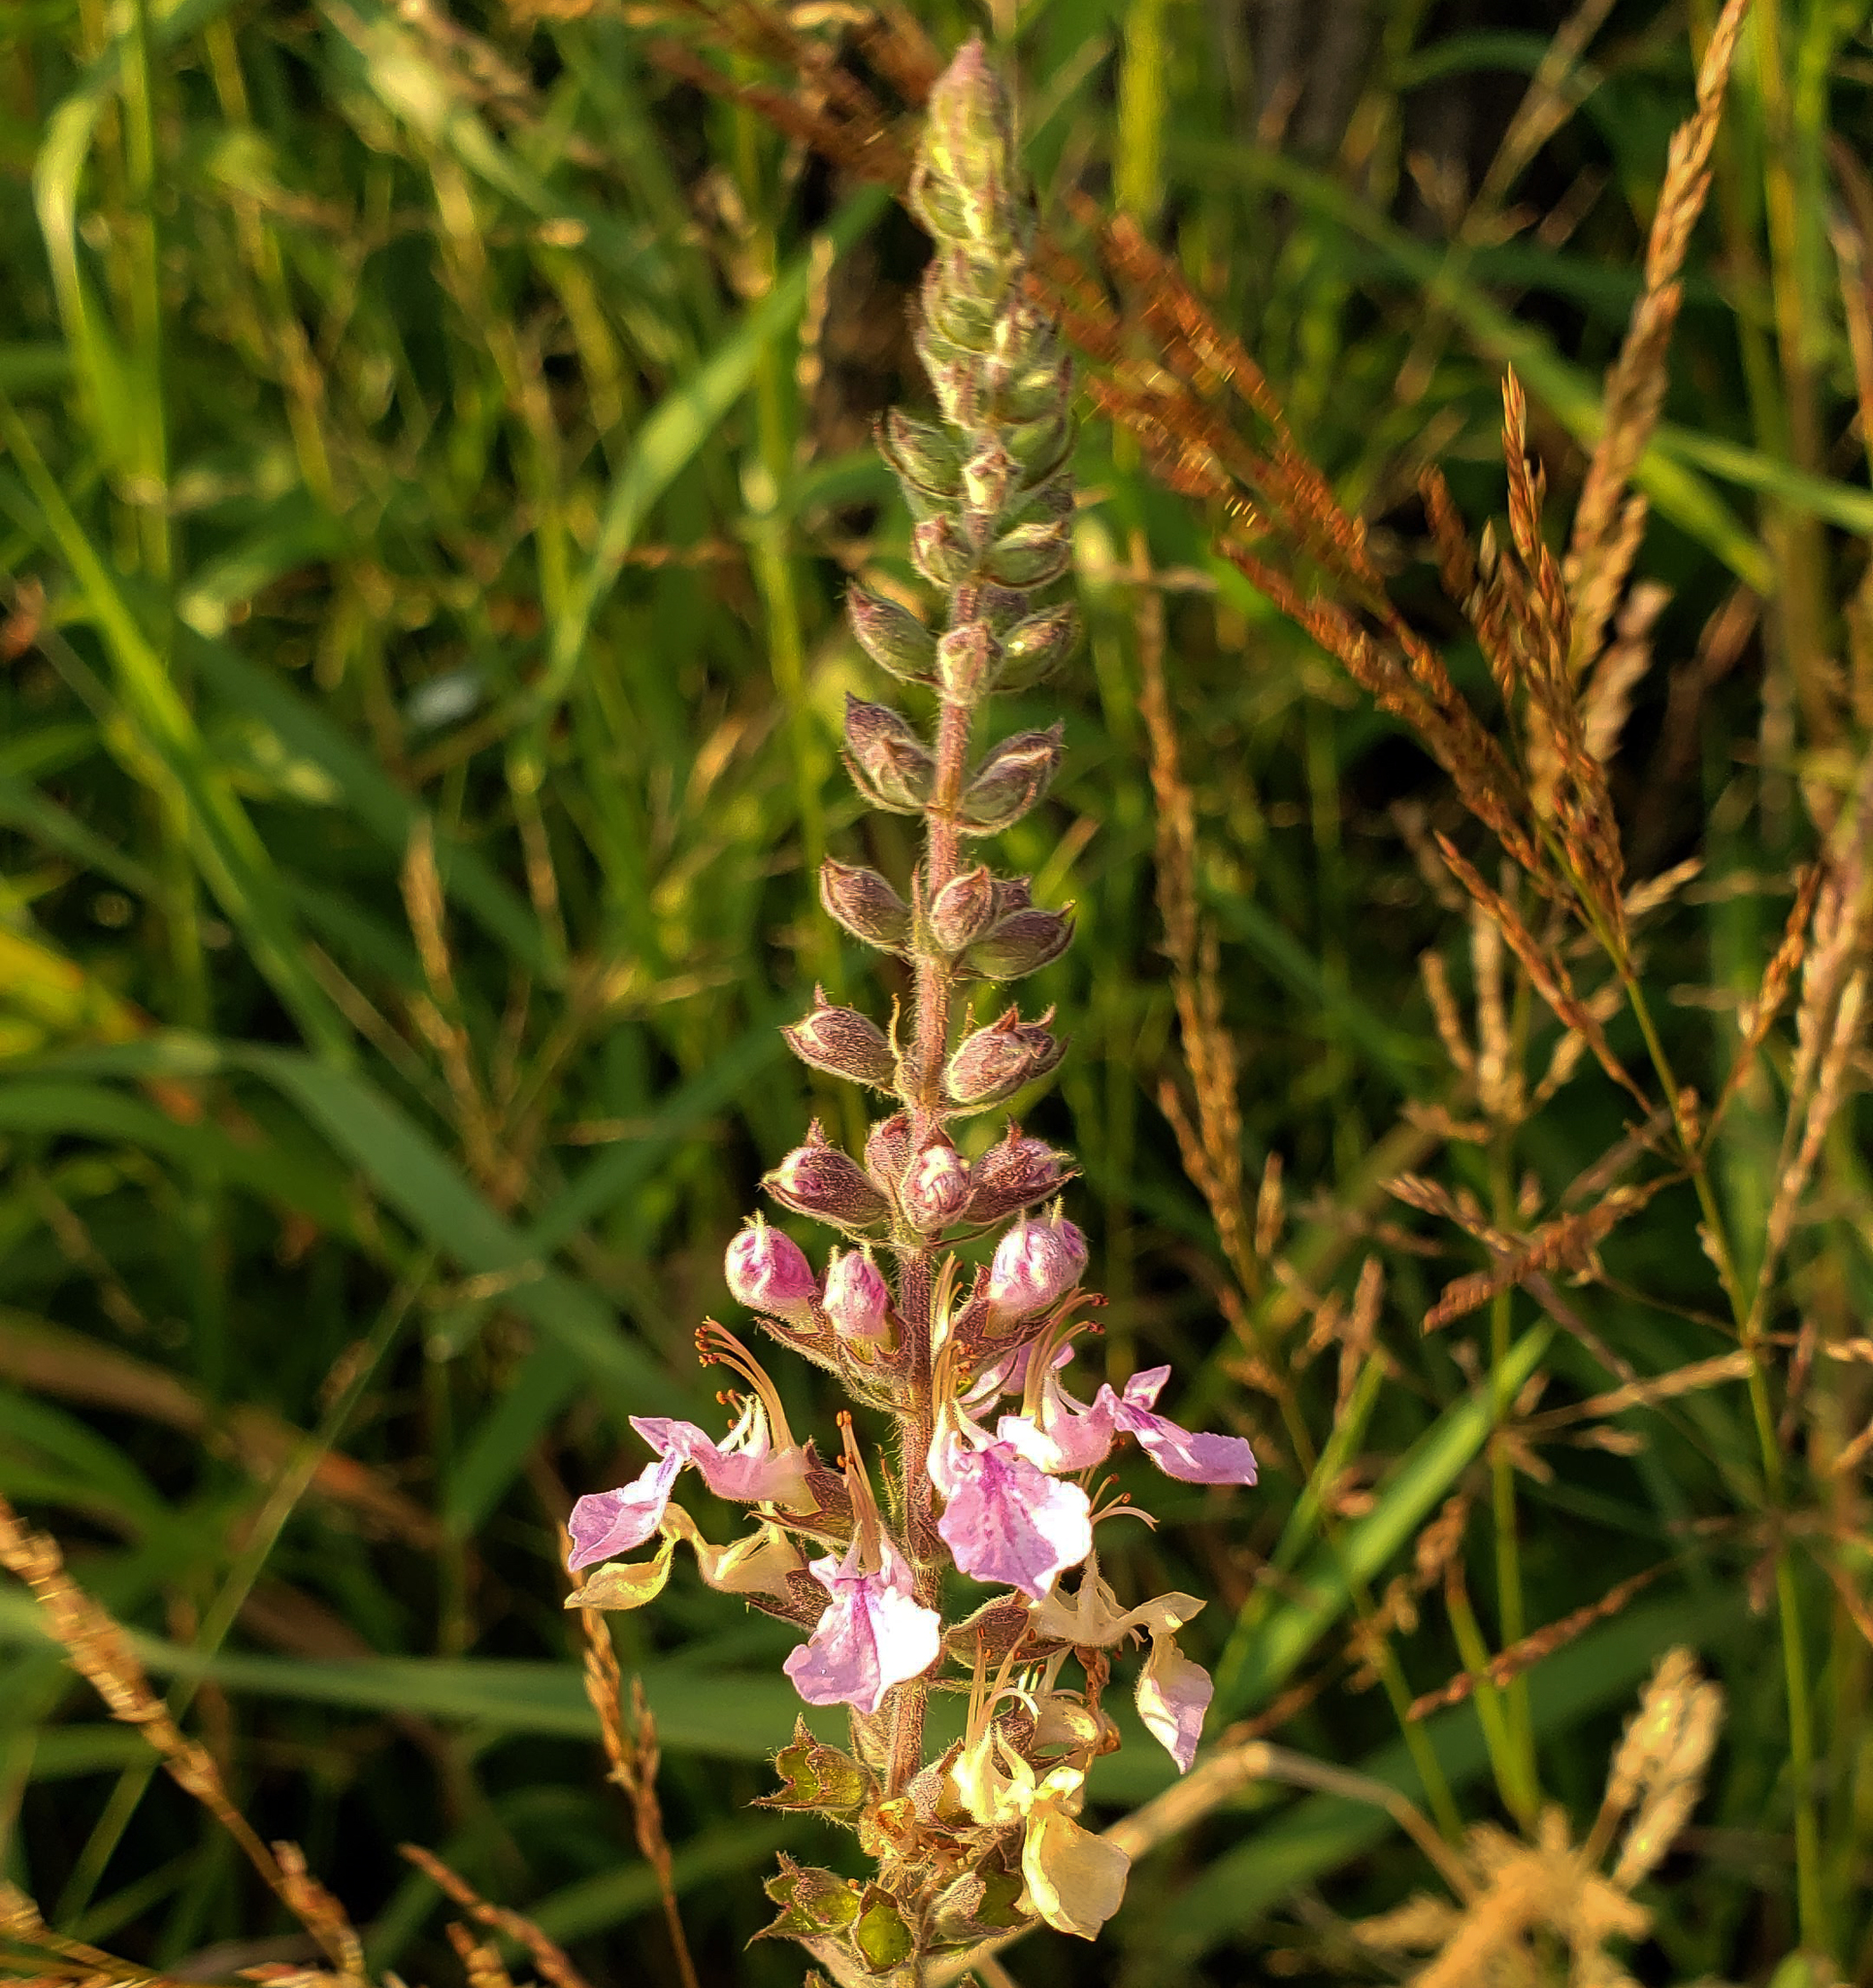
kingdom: Plantae
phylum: Tracheophyta
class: Magnoliopsida
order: Lamiales
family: Lamiaceae
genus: Teucrium
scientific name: Teucrium canadense
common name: American germander
